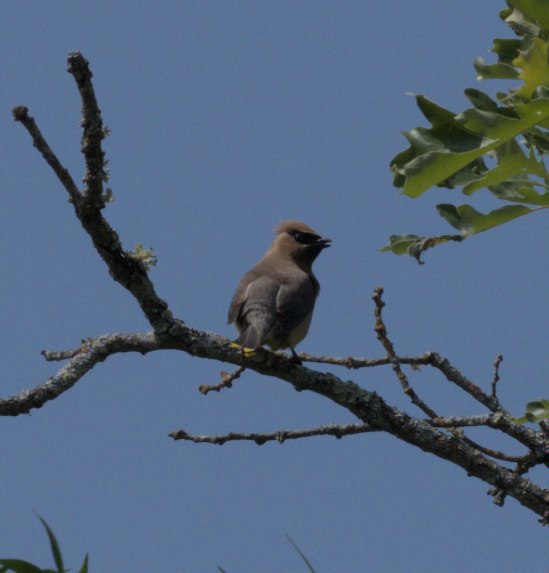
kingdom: Animalia
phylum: Chordata
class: Aves
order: Passeriformes
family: Bombycillidae
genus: Bombycilla
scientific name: Bombycilla cedrorum
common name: Cedar waxwing
